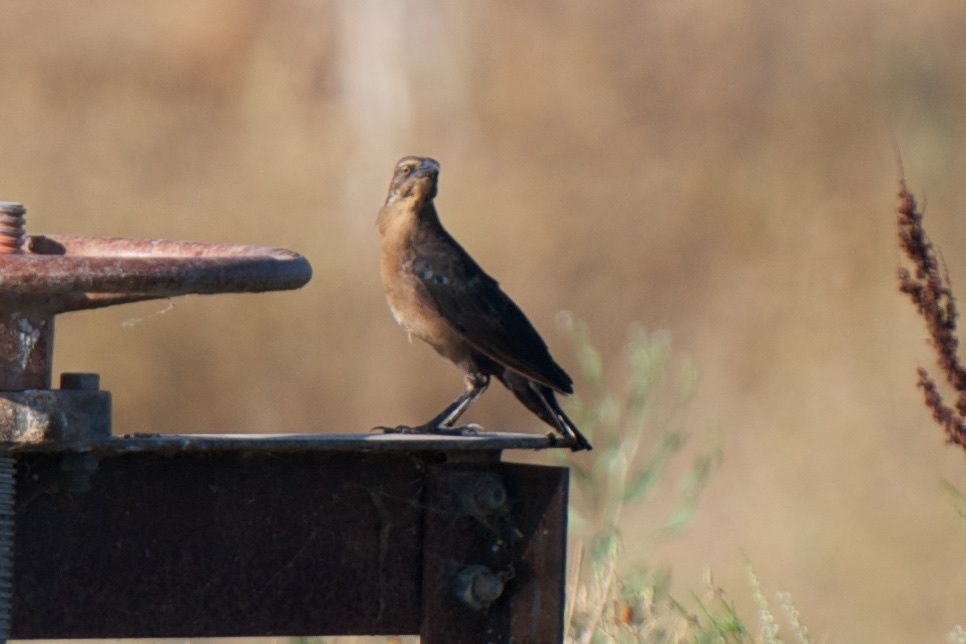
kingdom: Animalia
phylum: Chordata
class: Aves
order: Passeriformes
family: Icteridae
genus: Quiscalus
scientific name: Quiscalus mexicanus
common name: Great-tailed grackle
